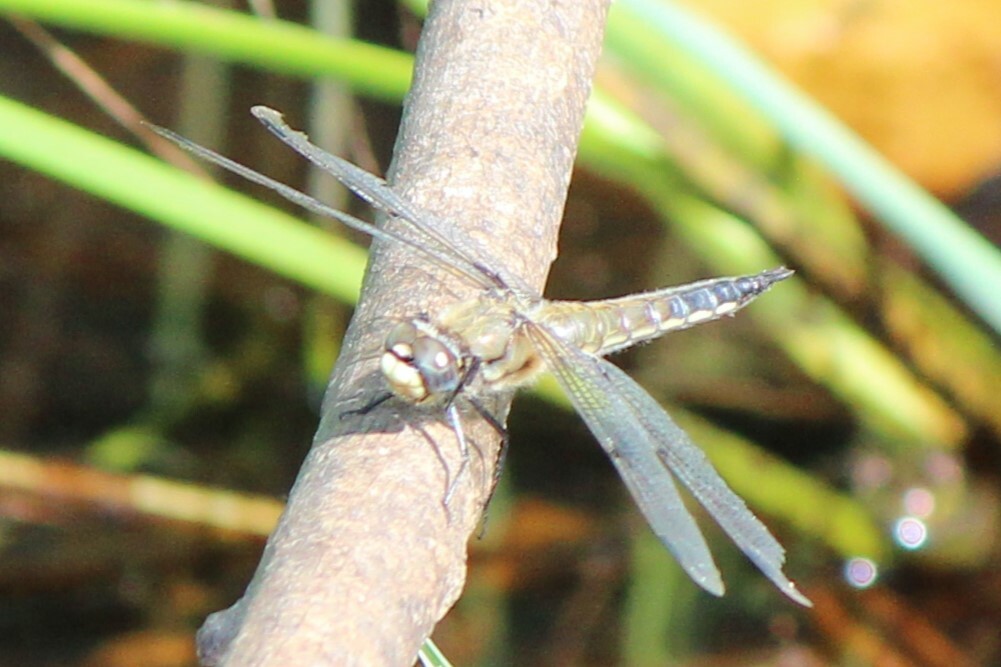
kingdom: Animalia
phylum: Arthropoda
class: Insecta
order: Odonata
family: Libellulidae
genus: Libellula
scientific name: Libellula quadrimaculata
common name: Four-spotted chaser
